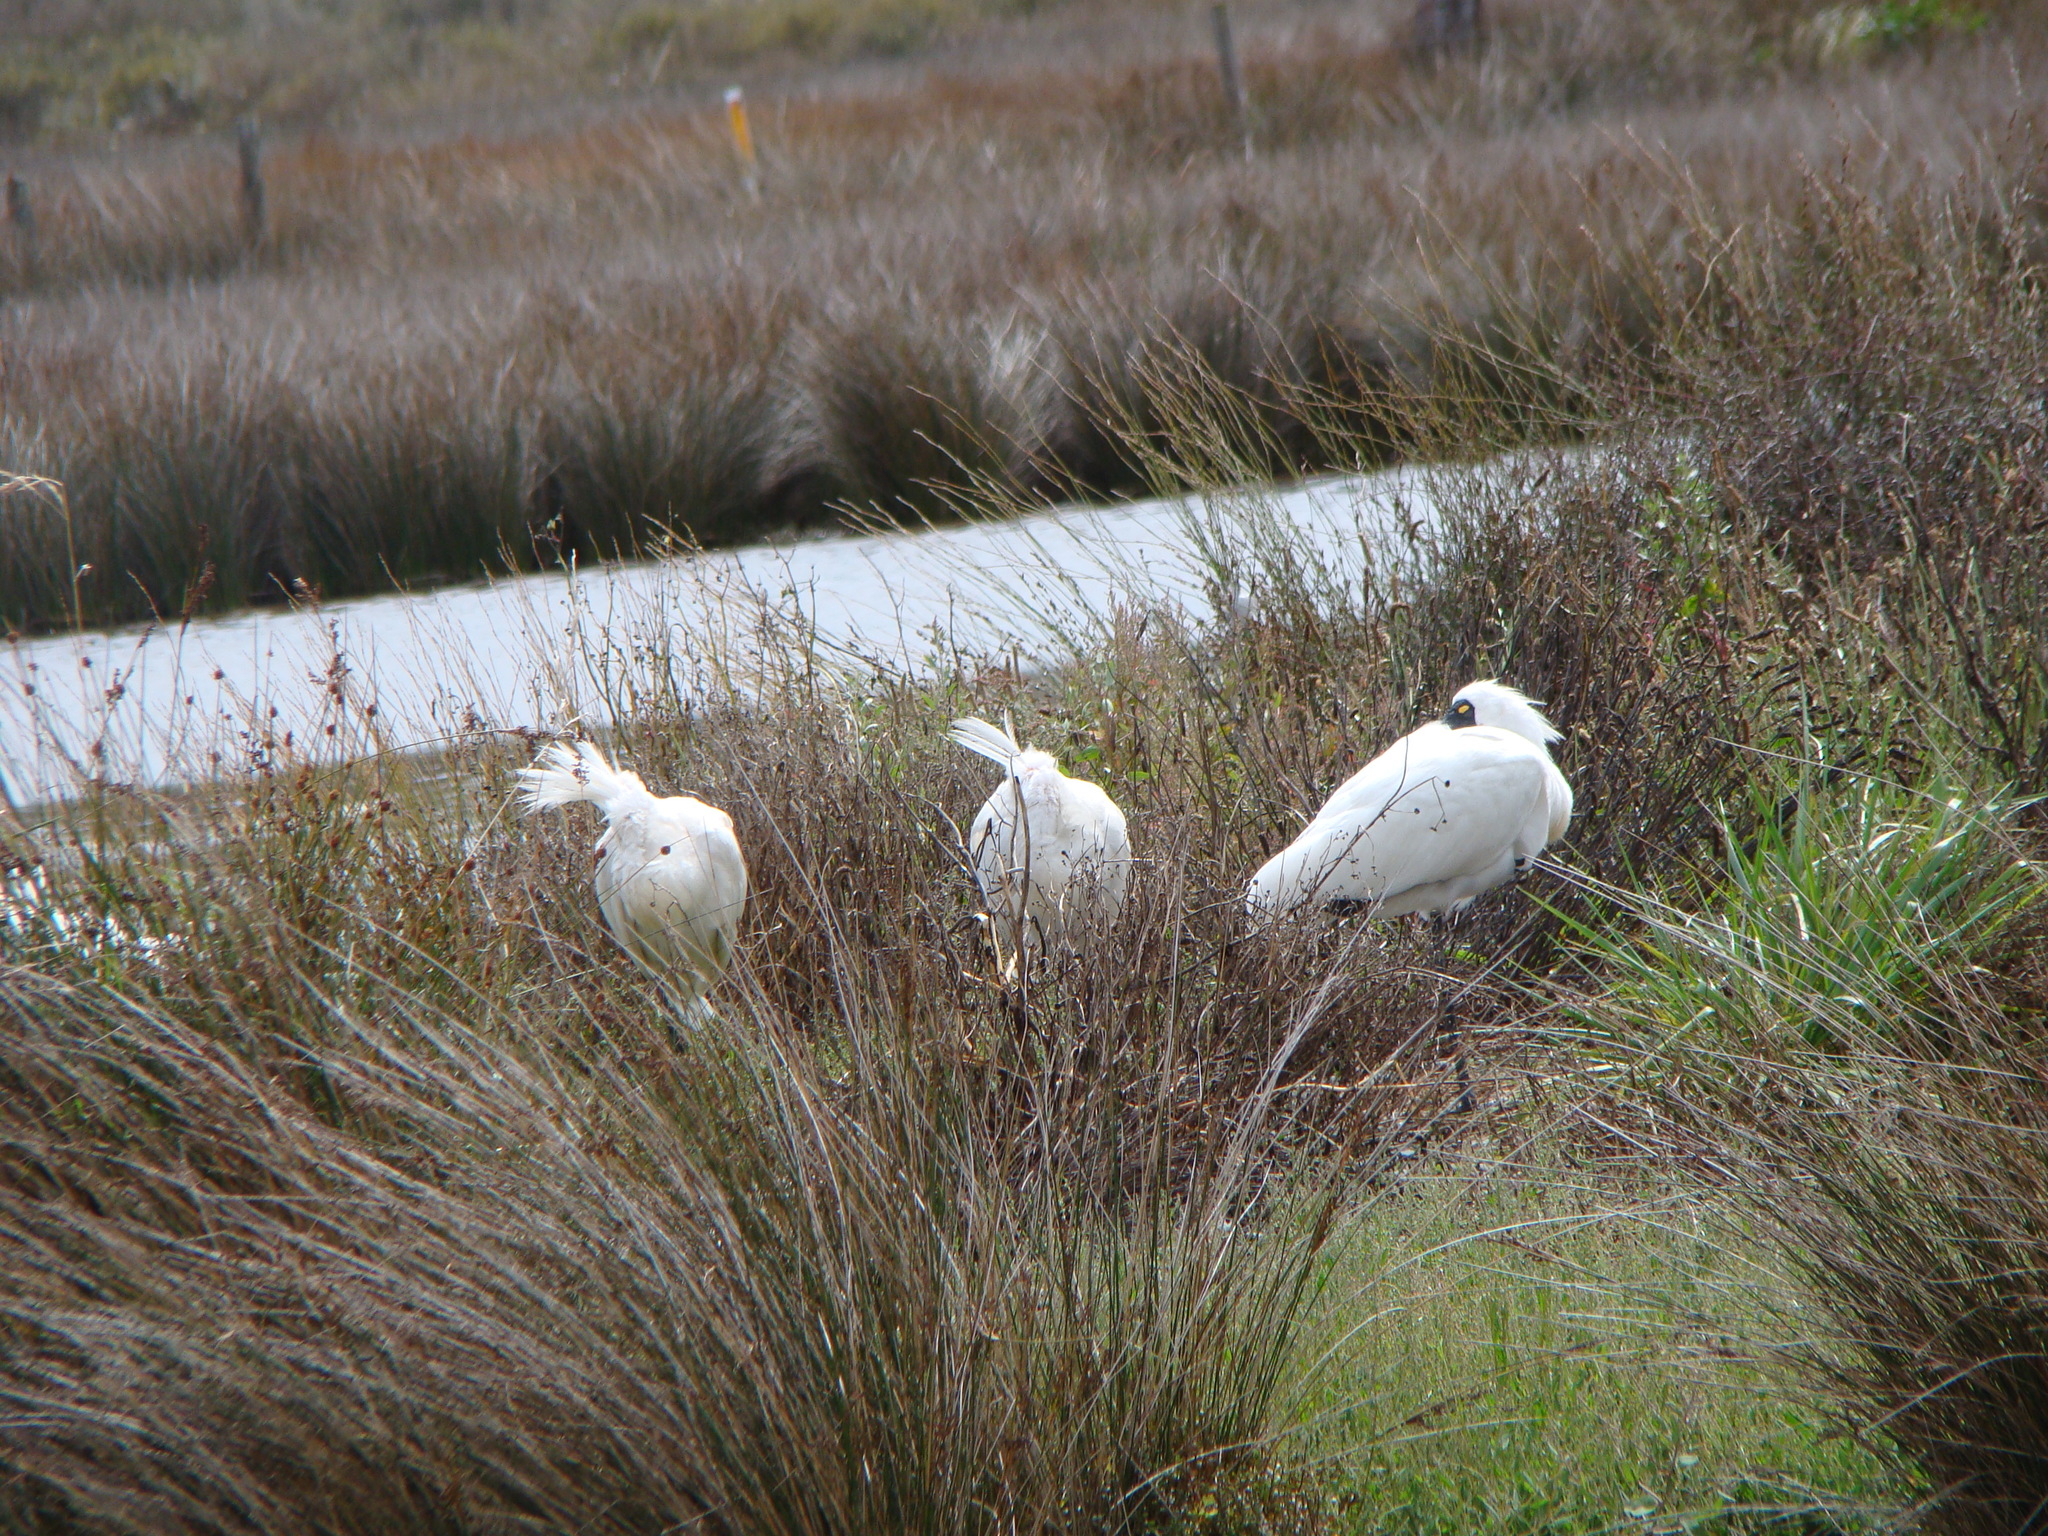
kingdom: Animalia
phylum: Chordata
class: Aves
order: Pelecaniformes
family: Threskiornithidae
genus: Platalea
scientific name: Platalea regia
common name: Royal spoonbill
